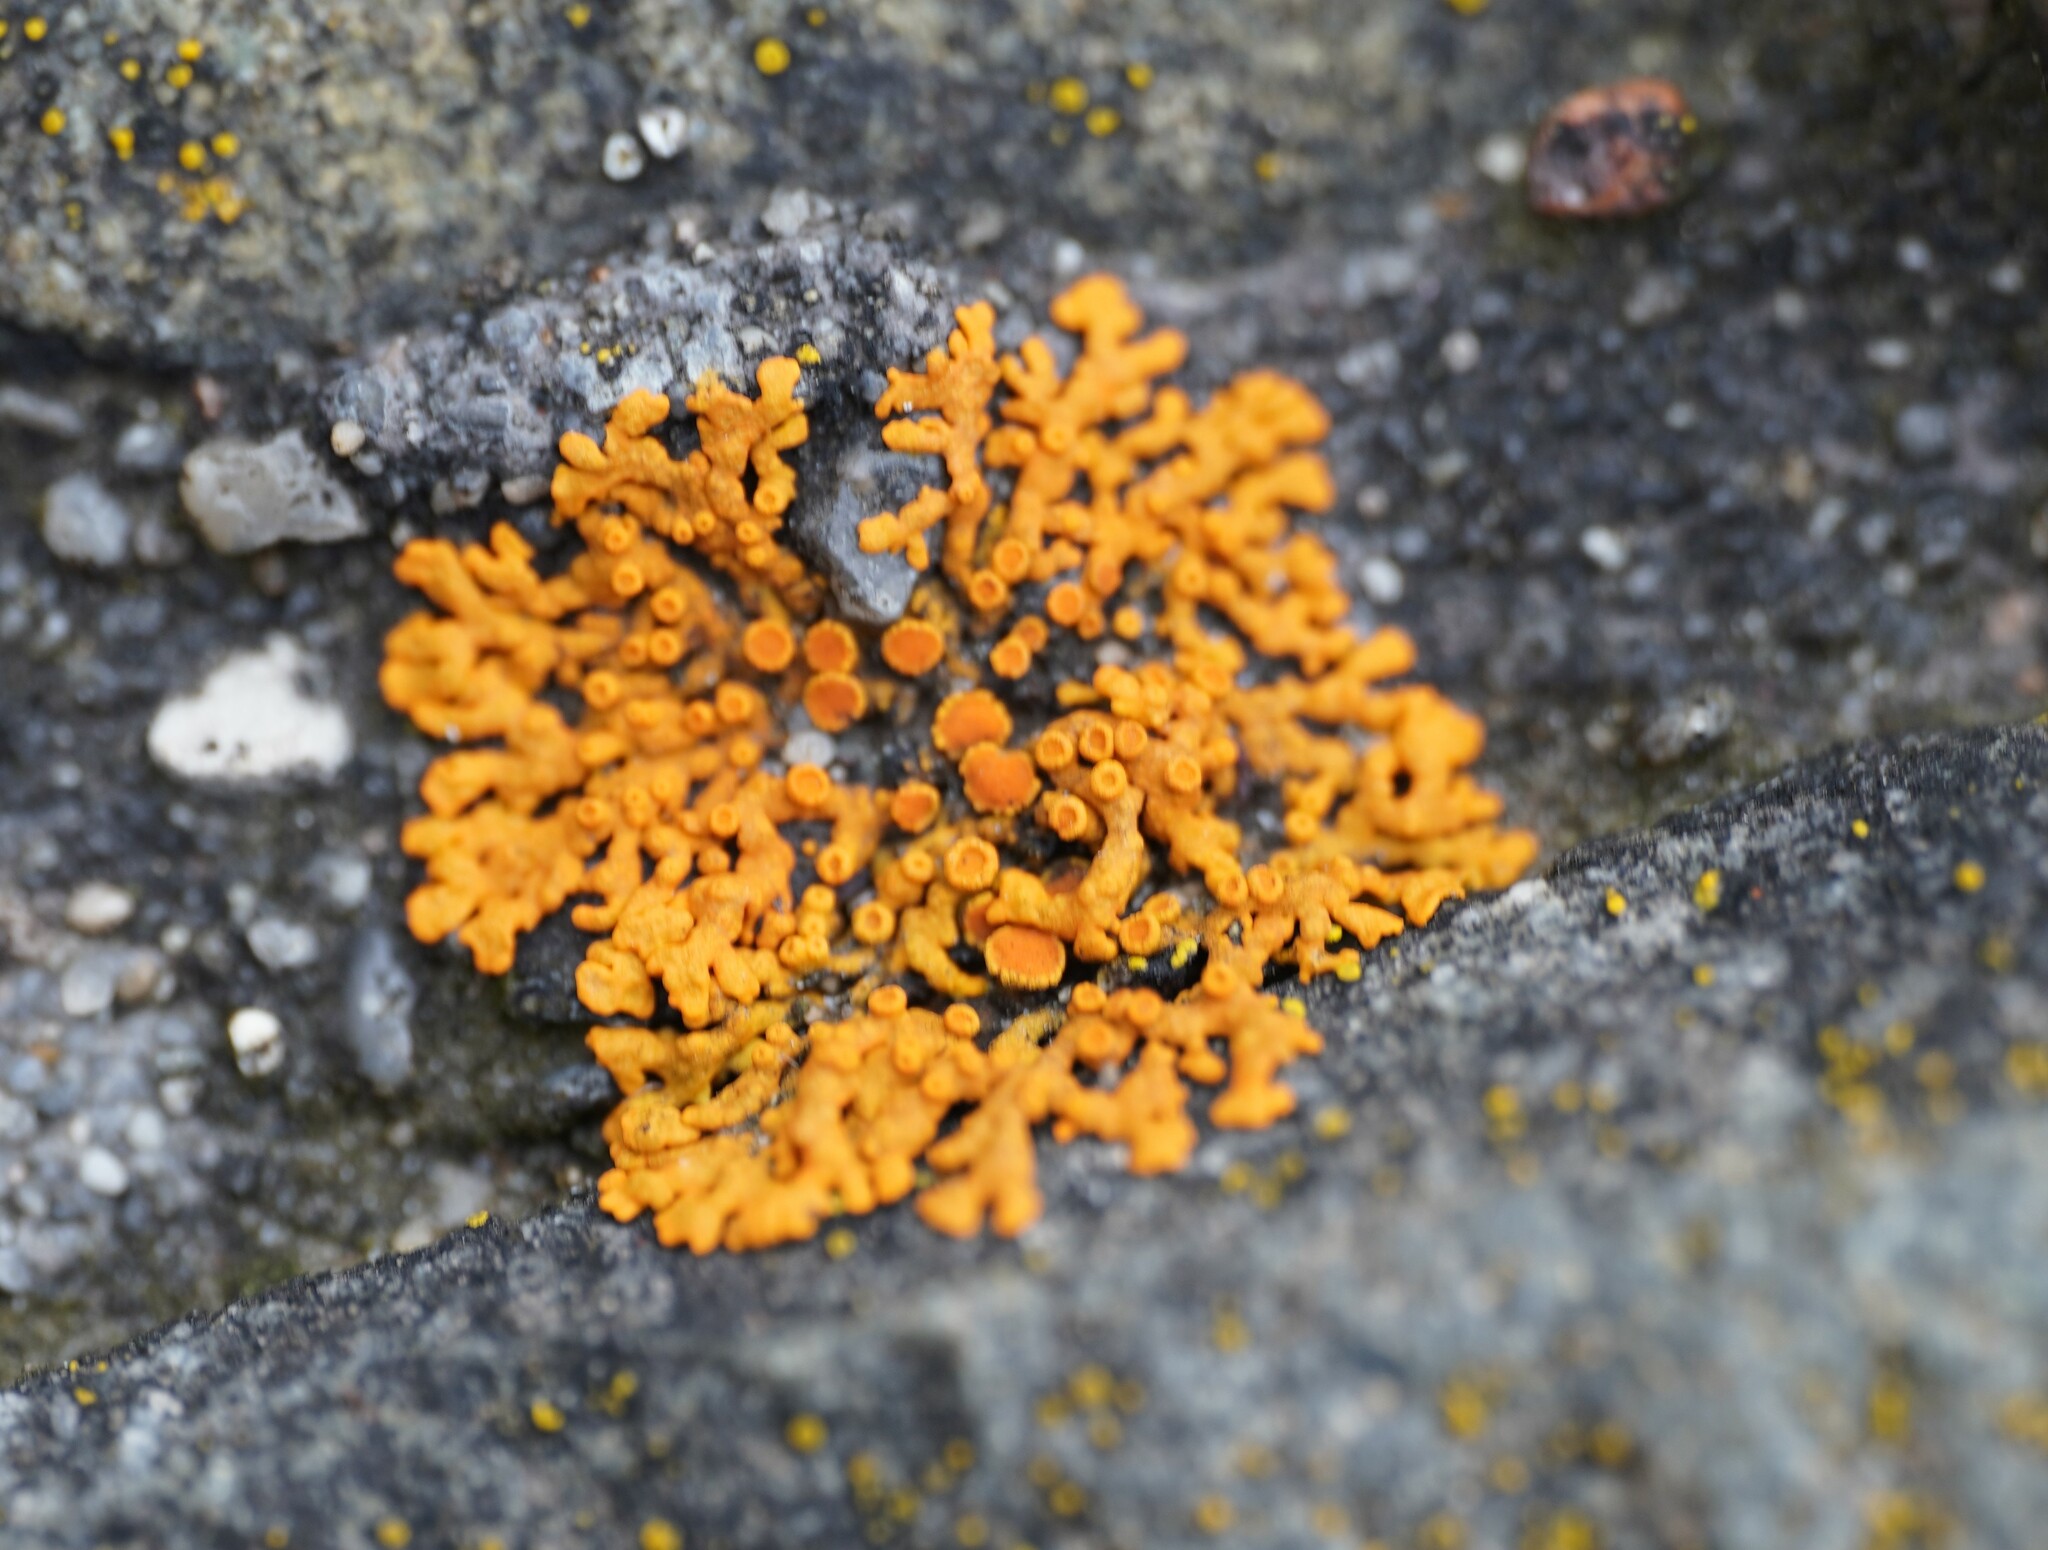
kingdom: Fungi
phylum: Ascomycota
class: Lecanoromycetes
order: Teloschistales
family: Teloschistaceae
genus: Xanthoria
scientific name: Xanthoria elegans
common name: Elegant sunburst lichen
